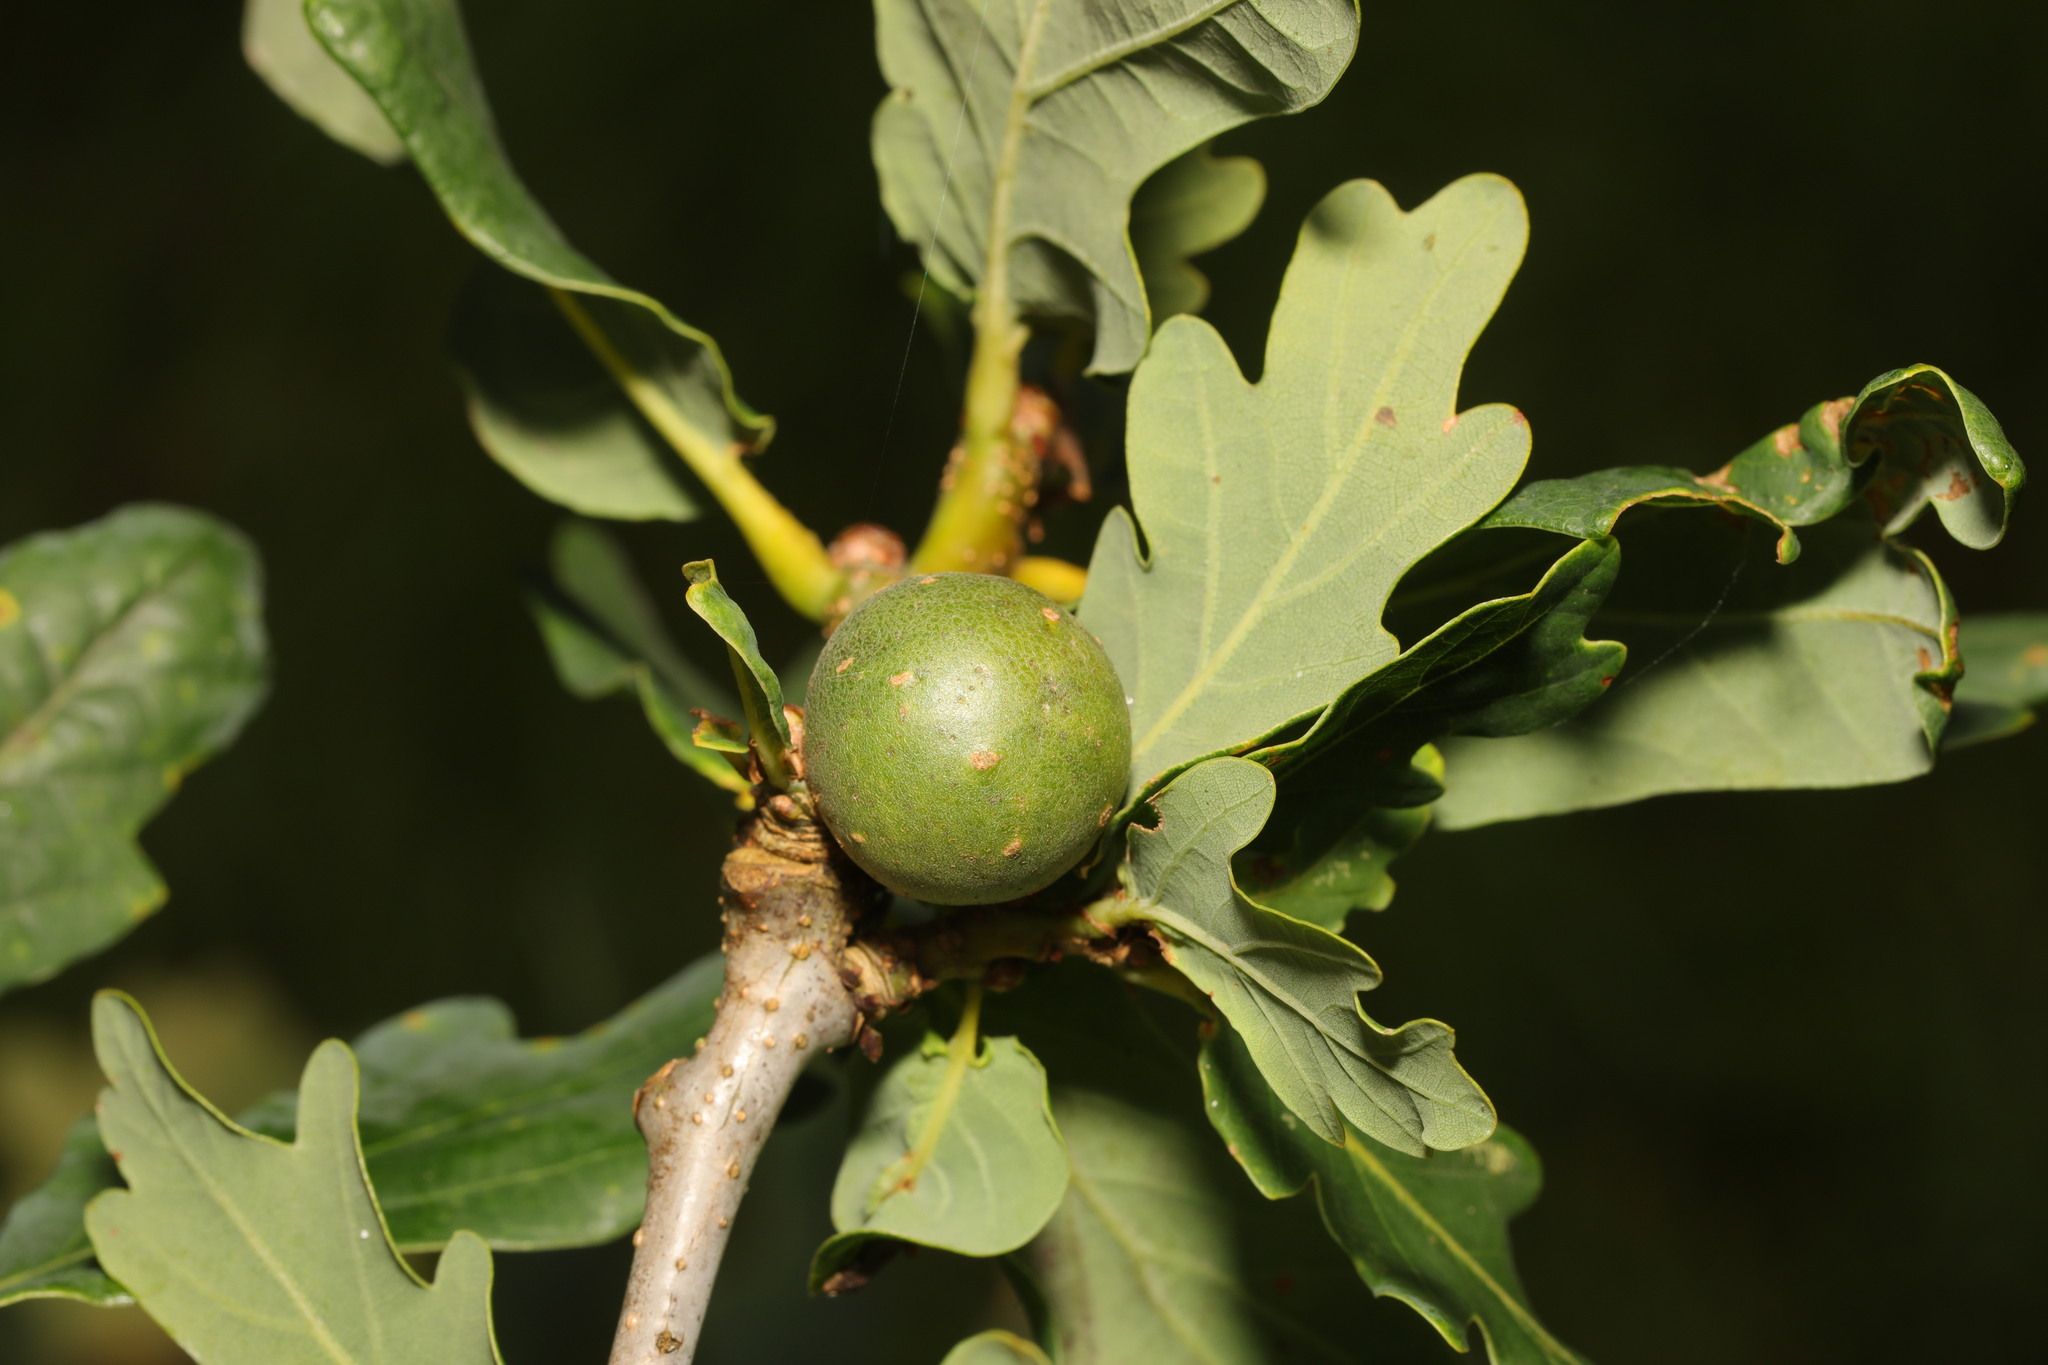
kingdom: Animalia
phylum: Arthropoda
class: Insecta
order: Hymenoptera
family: Cynipidae
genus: Andricus
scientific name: Andricus kollari
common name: Marble gall
